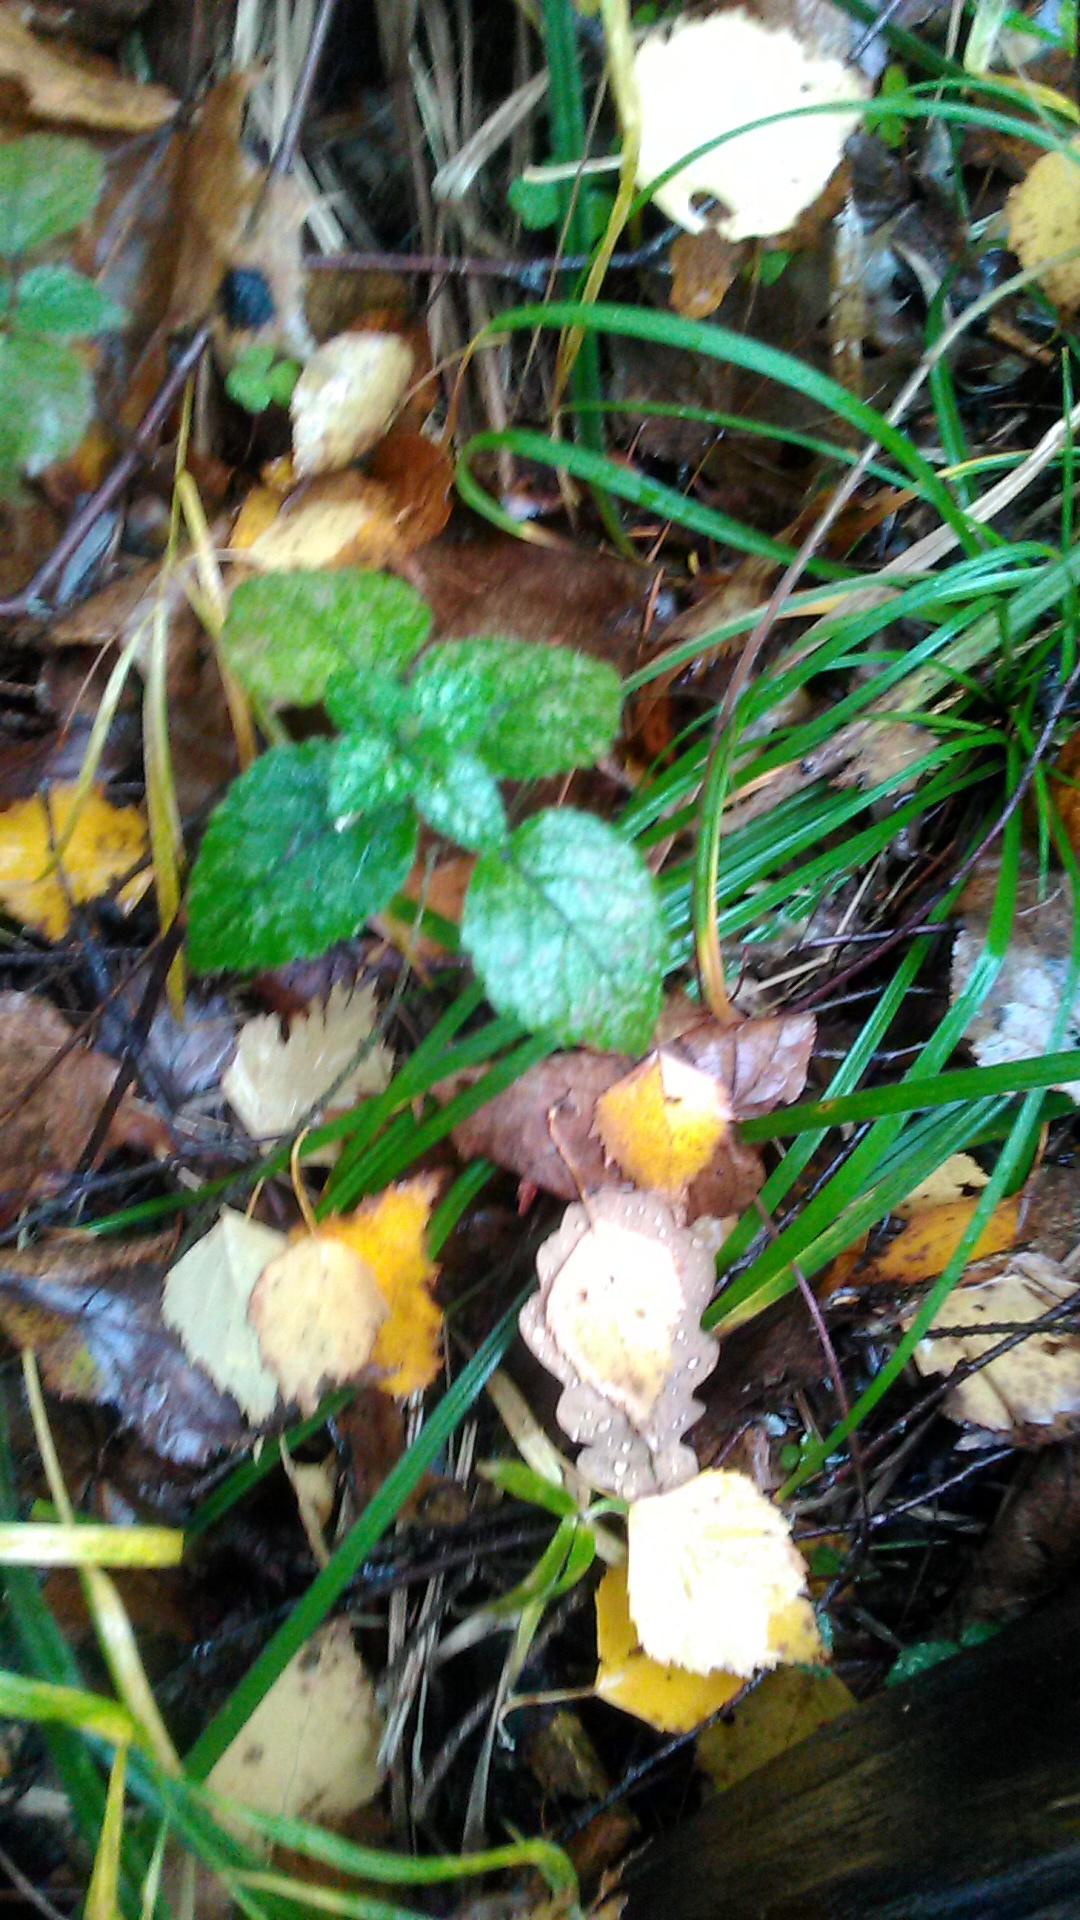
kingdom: Plantae
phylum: Tracheophyta
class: Magnoliopsida
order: Lamiales
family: Lamiaceae
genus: Lamium
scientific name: Lamium galeobdolon
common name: Yellow archangel
